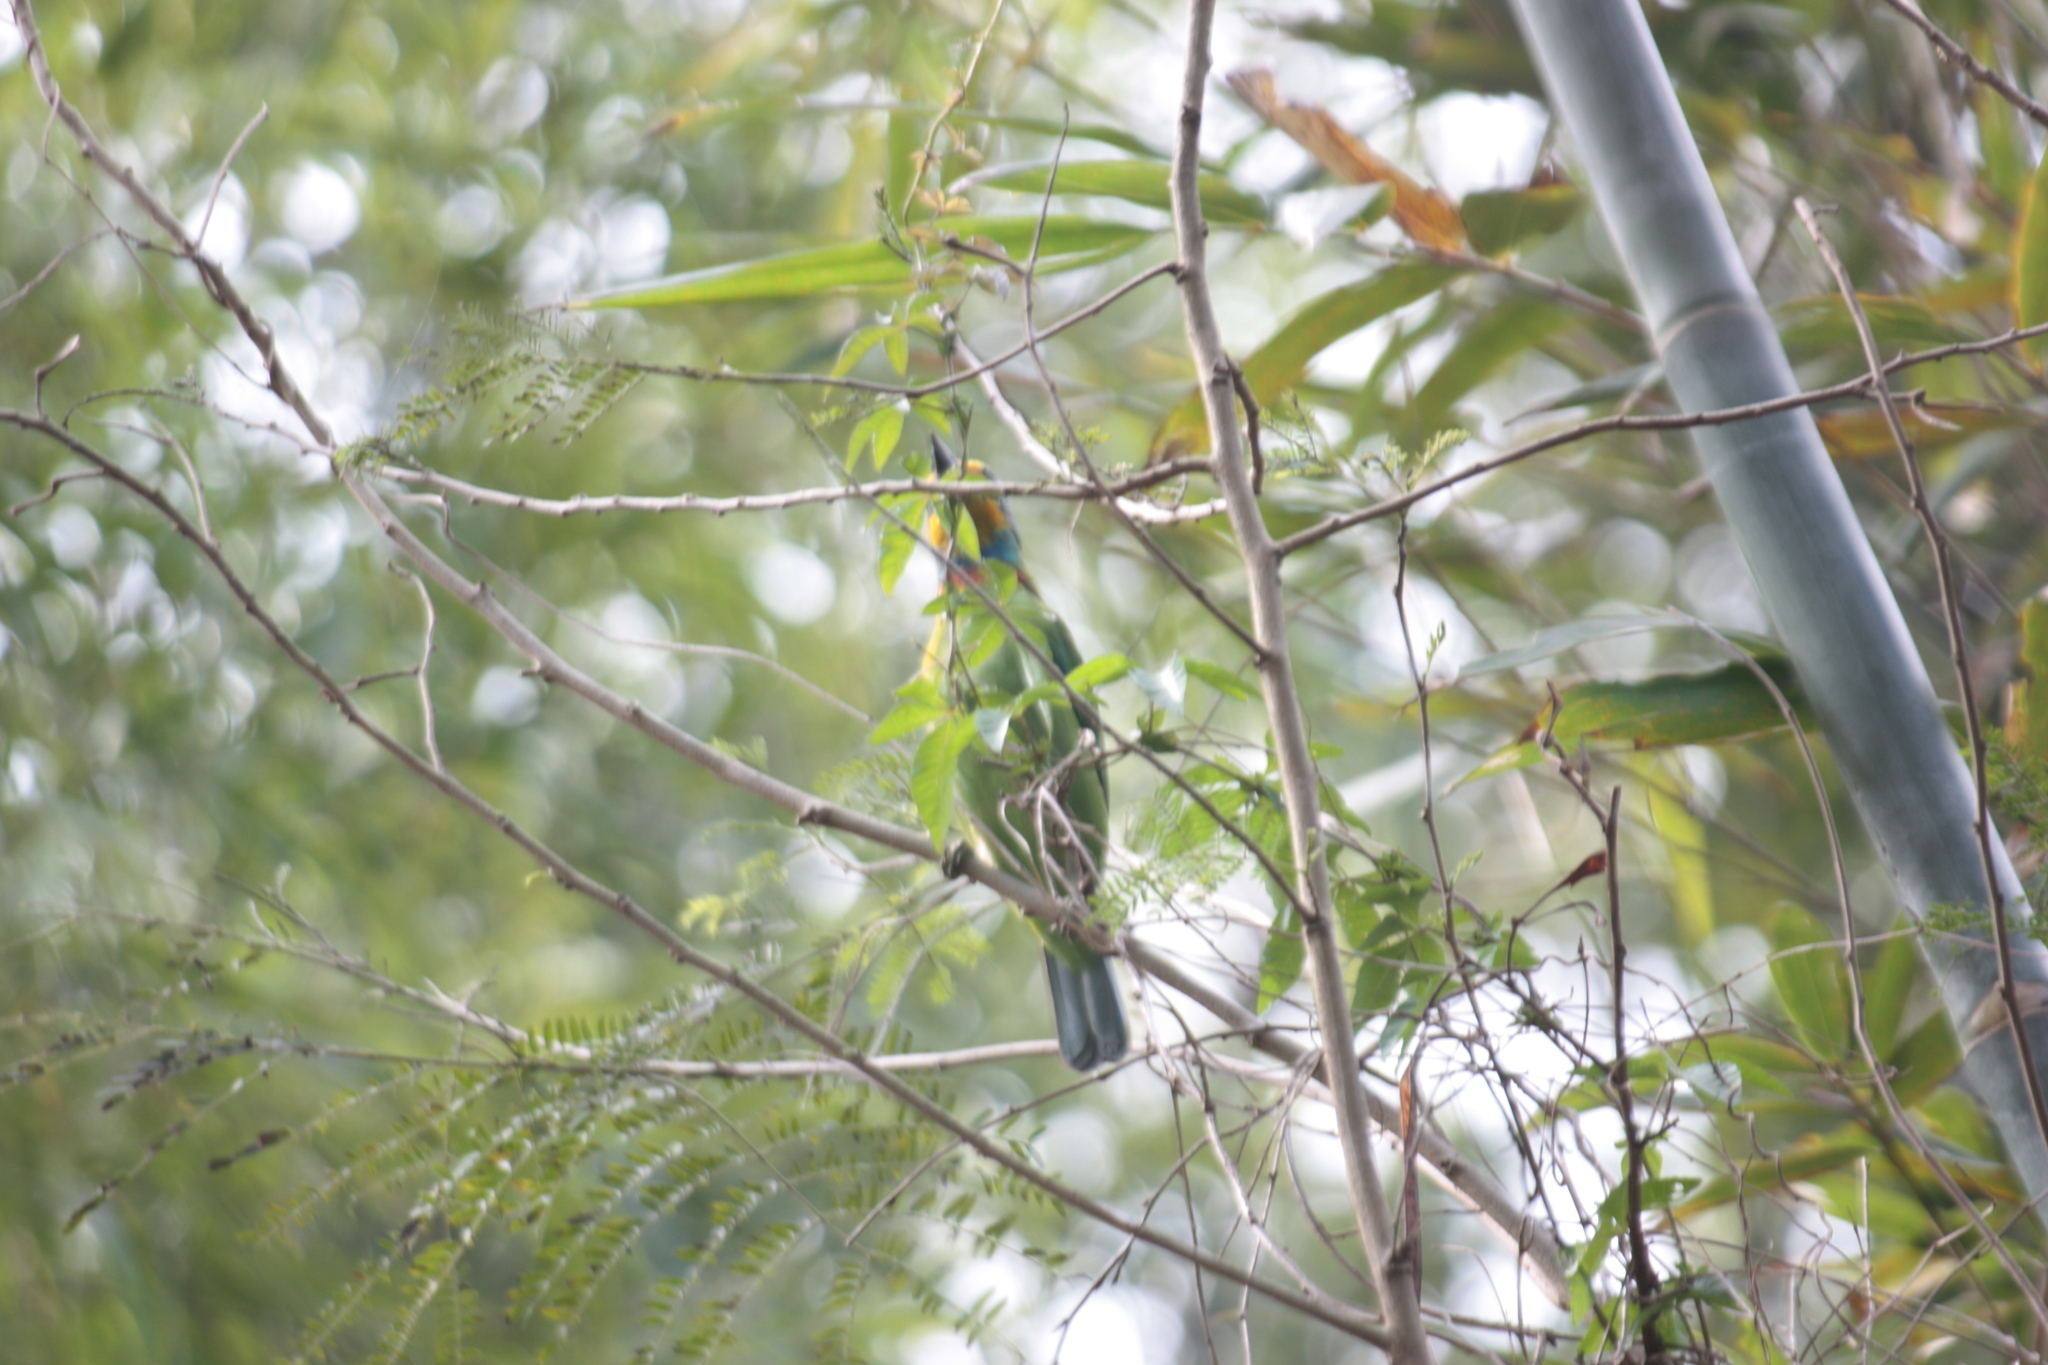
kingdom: Animalia
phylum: Chordata
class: Aves
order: Piciformes
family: Megalaimidae
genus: Psilopogon
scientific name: Psilopogon nuchalis
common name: Taiwan barbet
